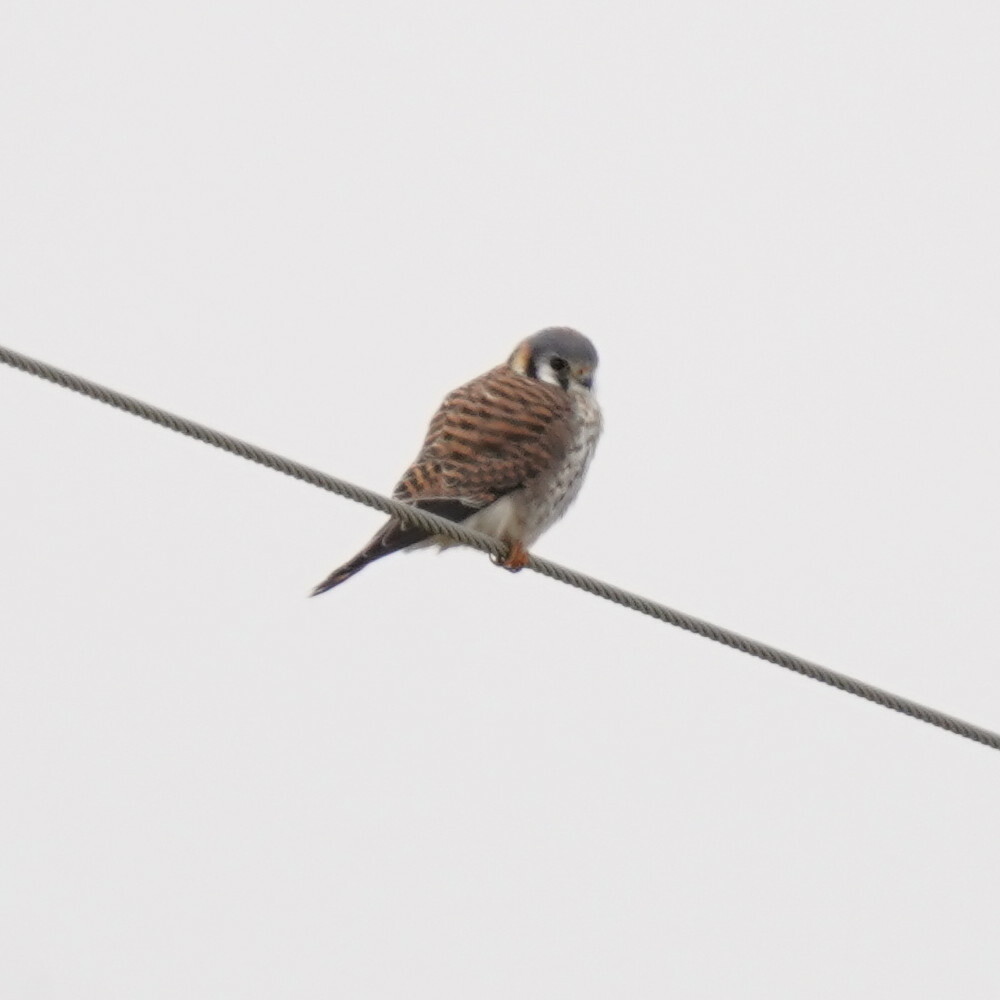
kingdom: Animalia
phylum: Chordata
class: Aves
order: Falconiformes
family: Falconidae
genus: Falco
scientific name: Falco sparverius
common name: American kestrel
